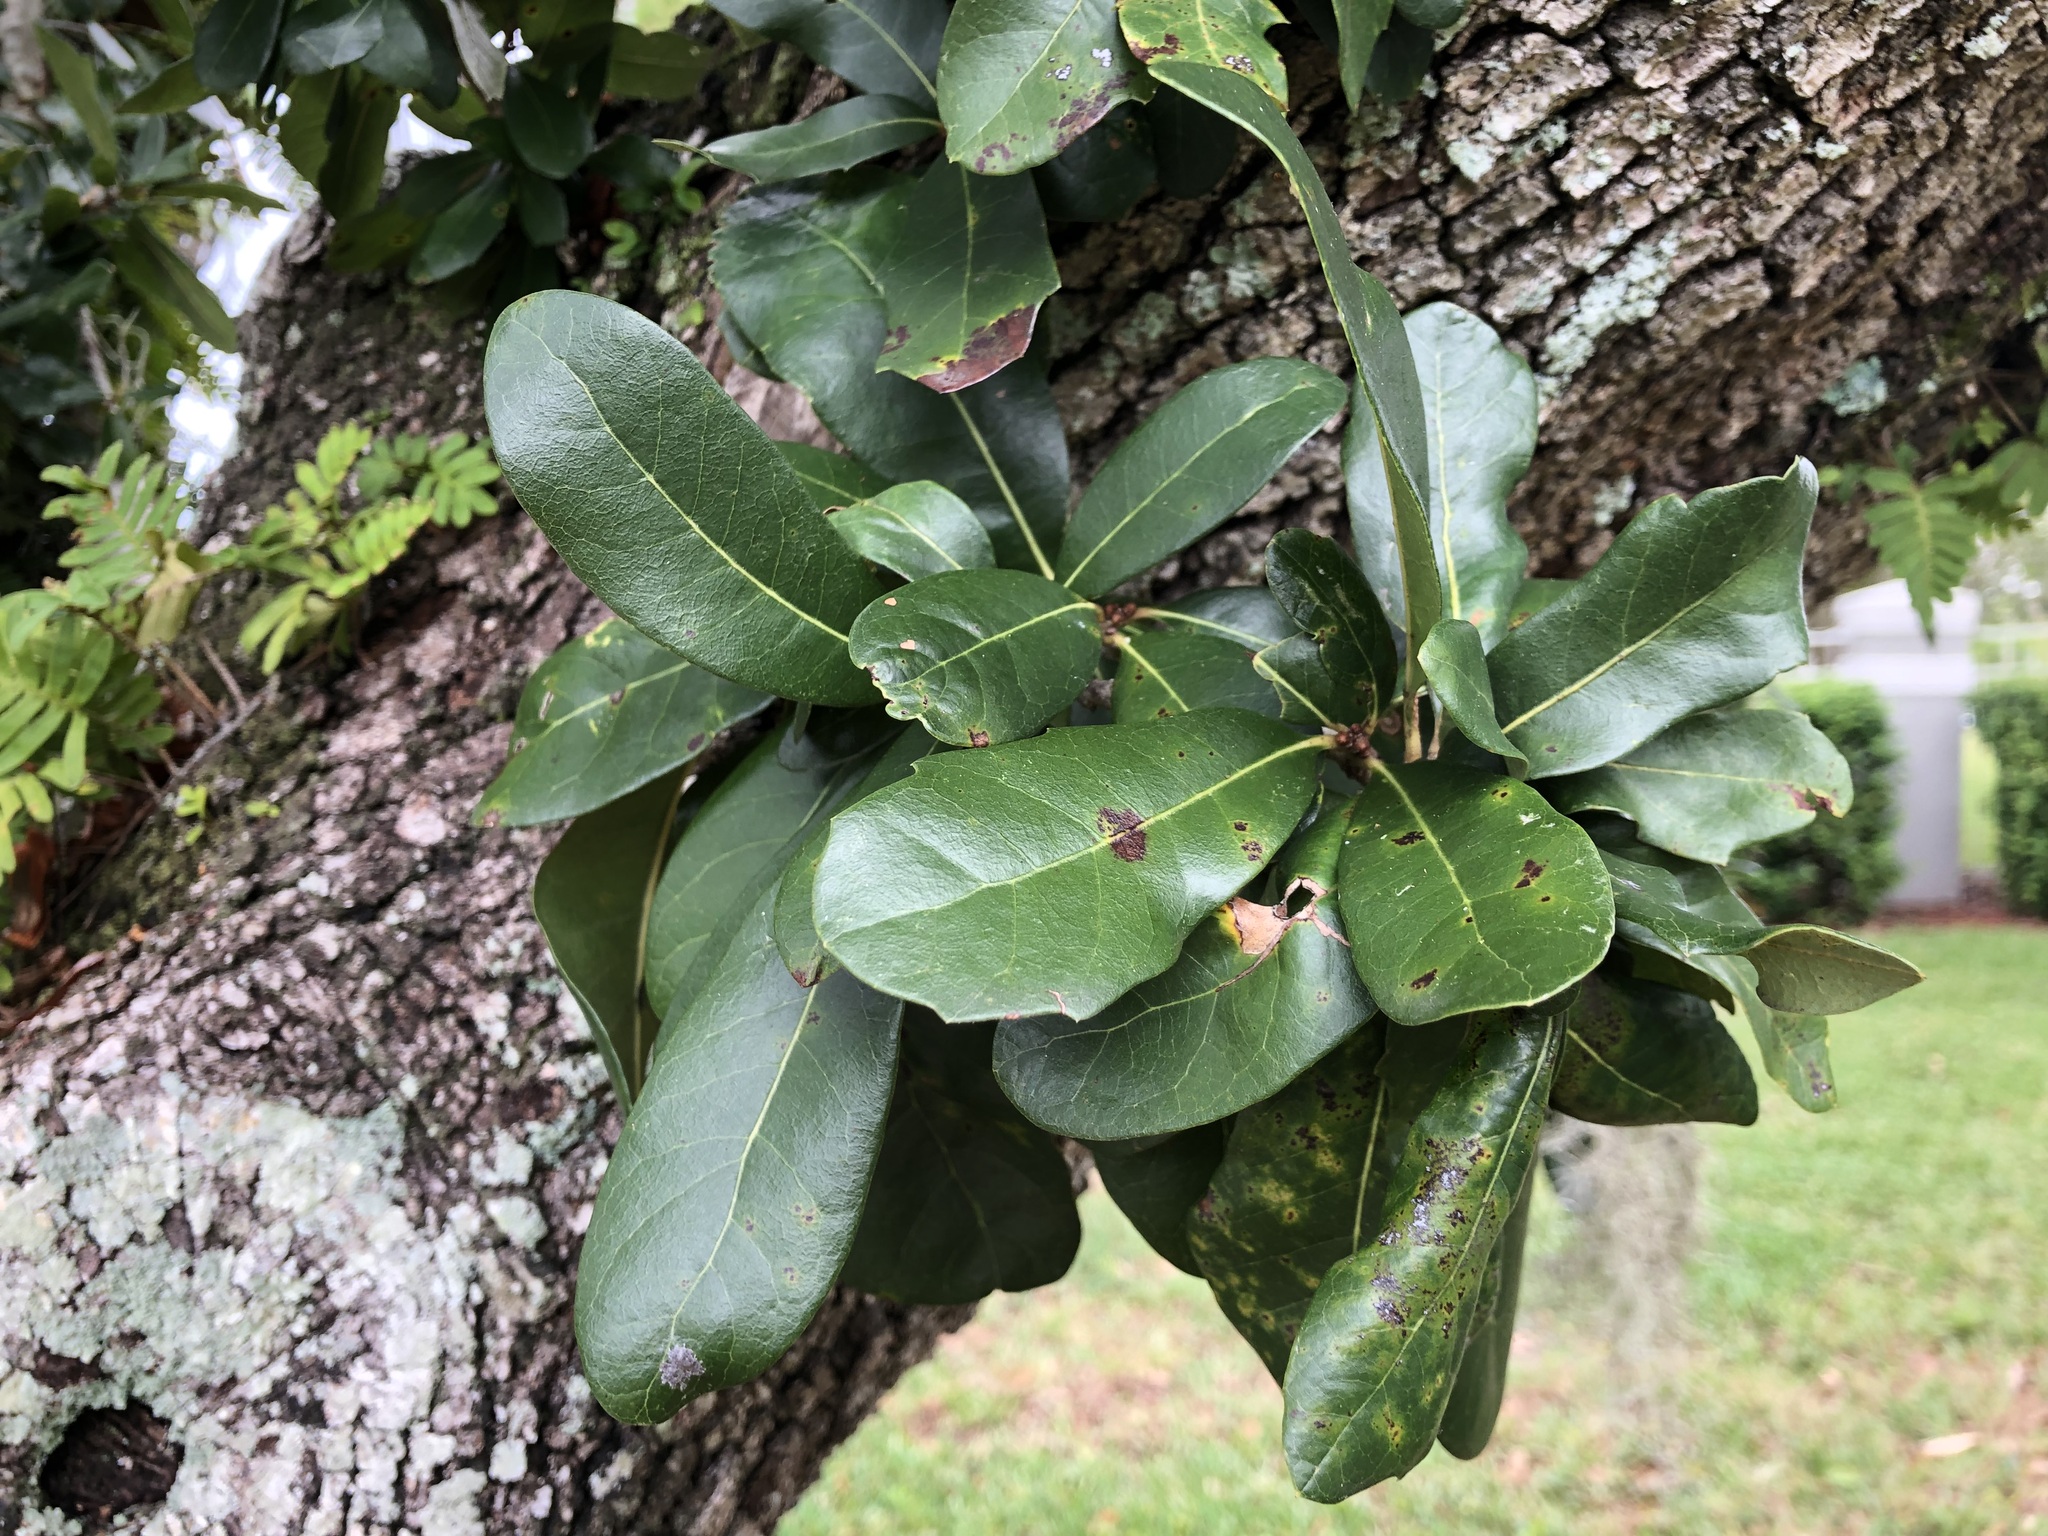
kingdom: Plantae
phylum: Tracheophyta
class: Magnoliopsida
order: Fagales
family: Fagaceae
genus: Quercus
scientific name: Quercus virginiana
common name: Southern live oak
